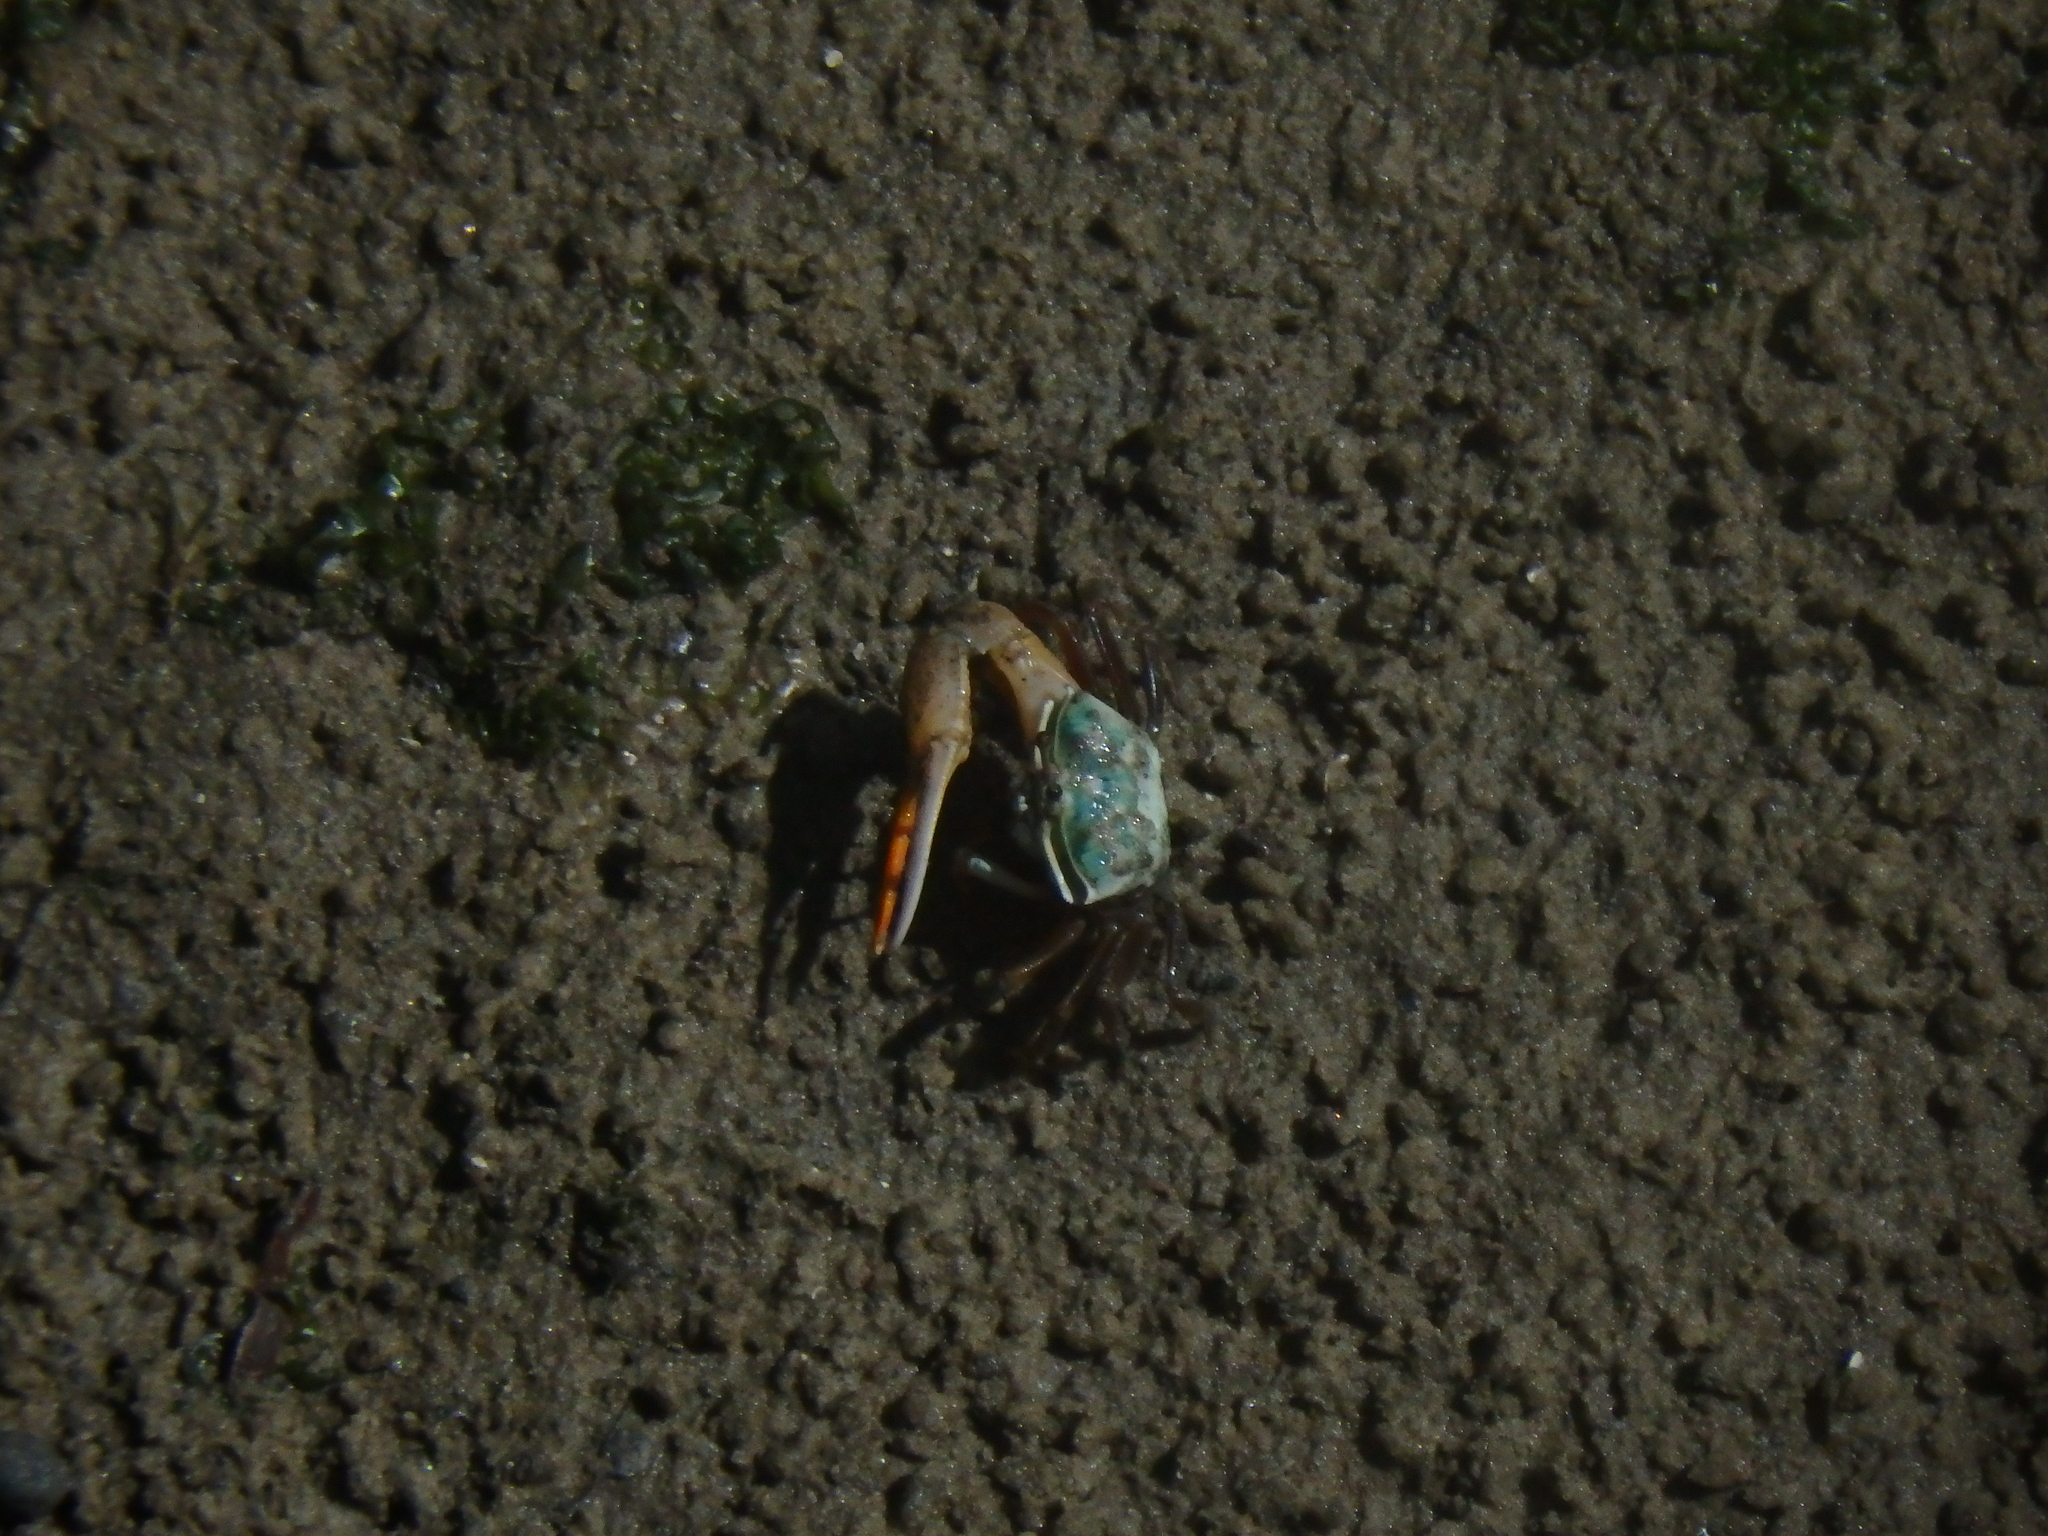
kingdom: Animalia
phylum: Arthropoda
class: Malacostraca
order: Decapoda
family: Ocypodidae
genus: Gelasimus
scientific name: Gelasimus vocans
